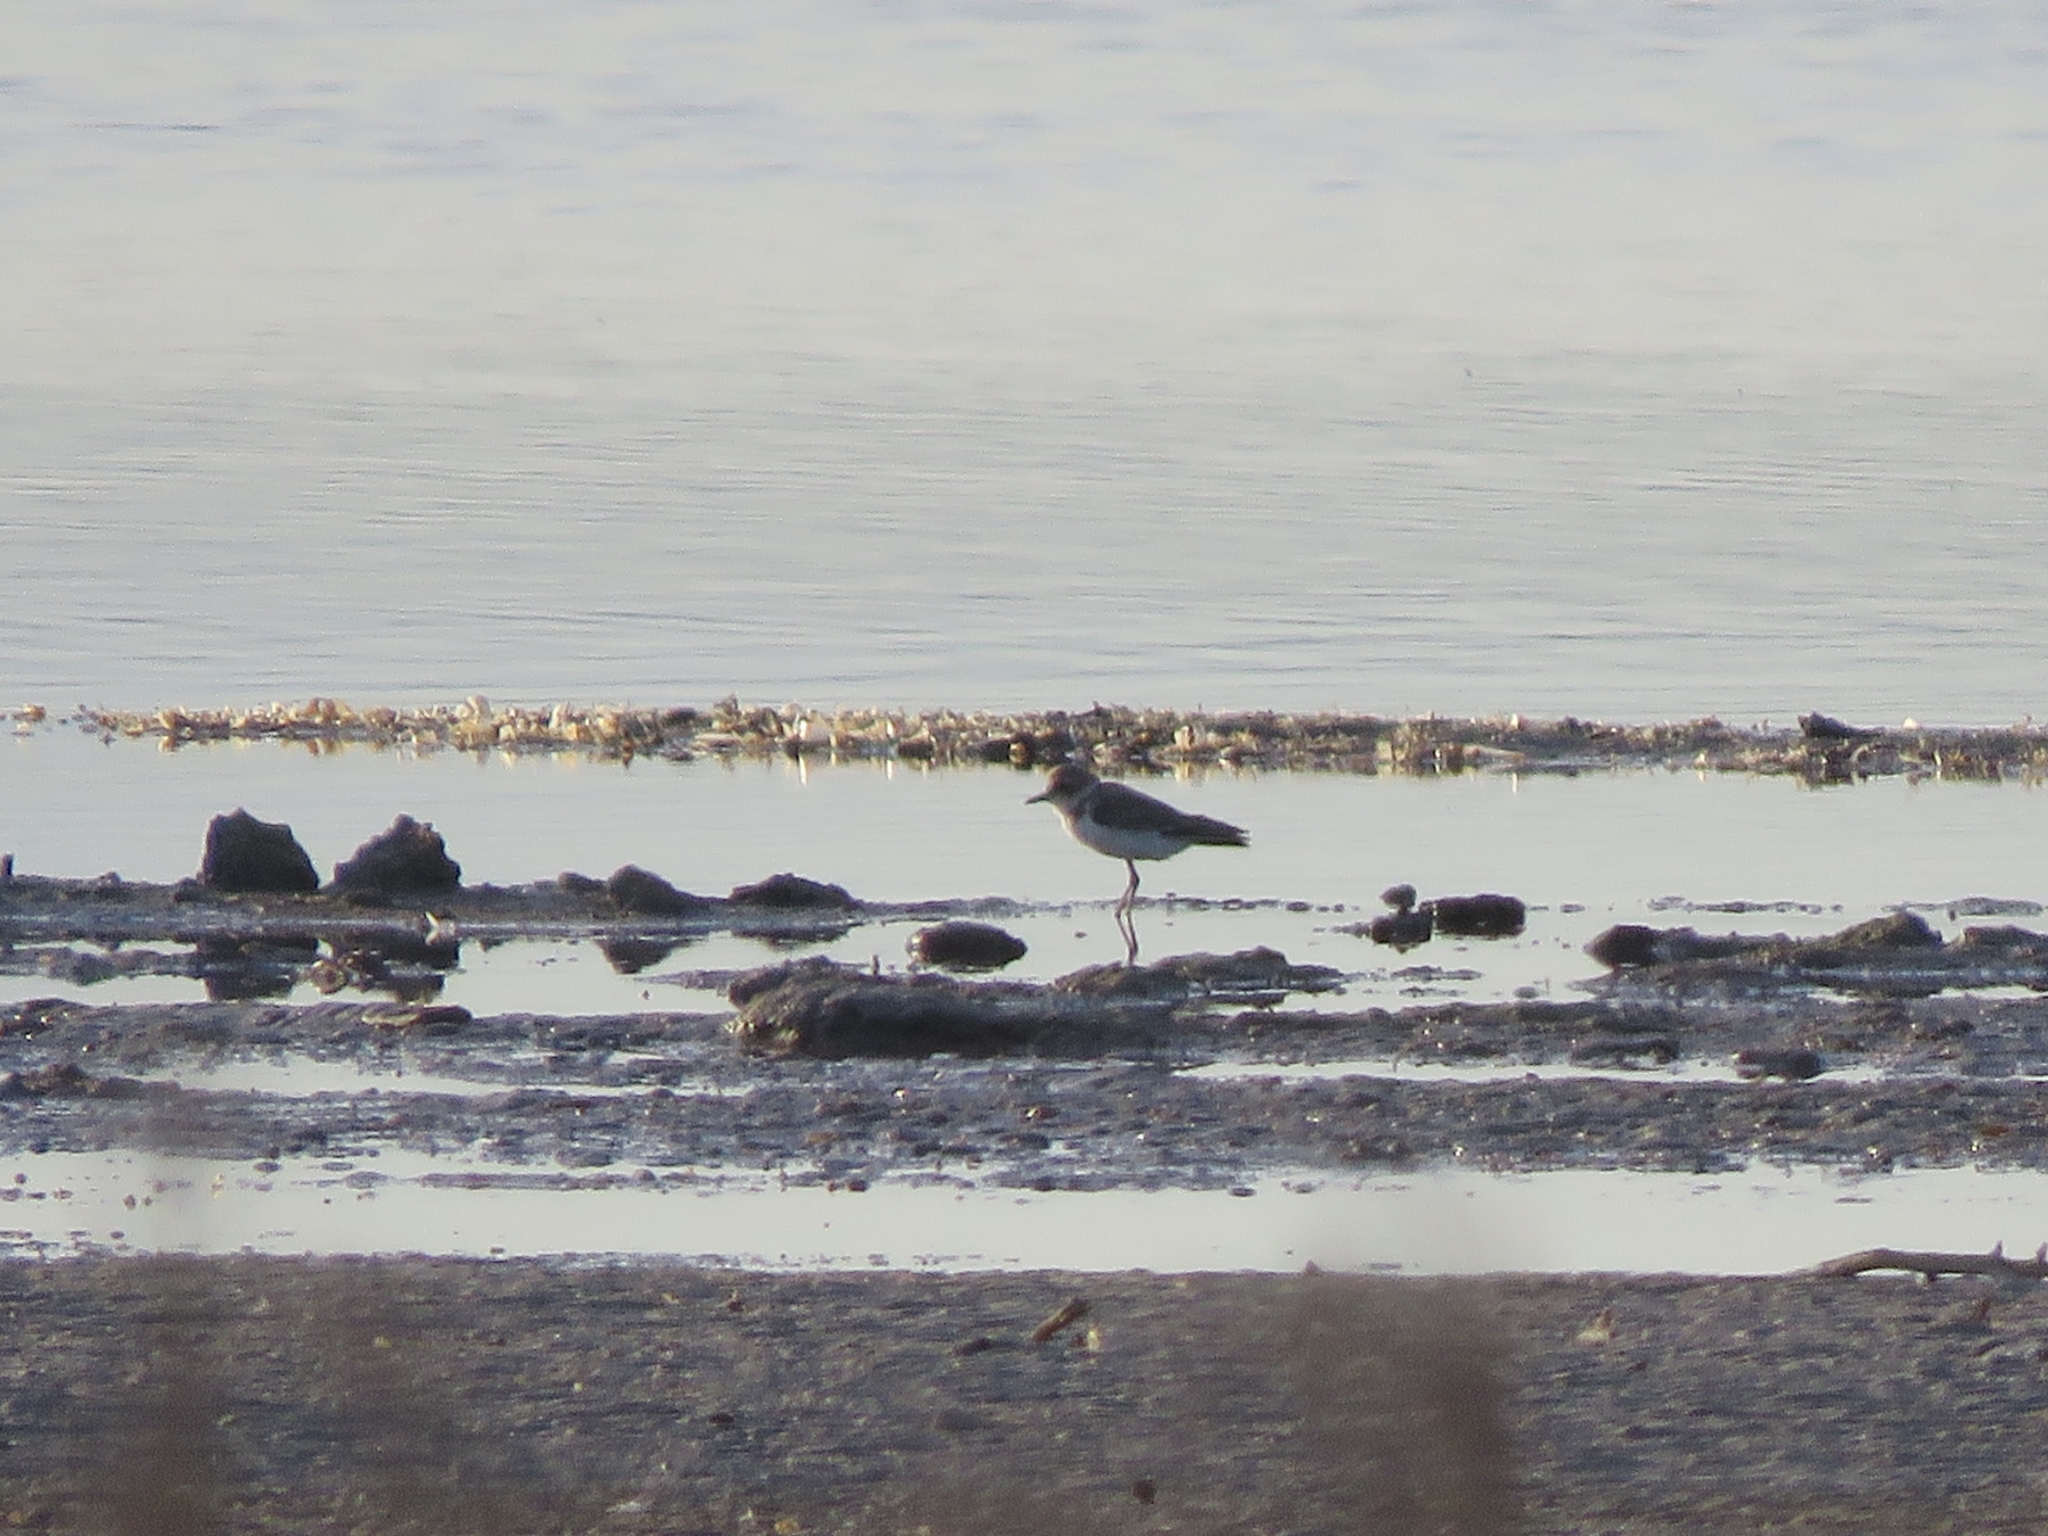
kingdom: Animalia
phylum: Chordata
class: Aves
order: Charadriiformes
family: Charadriidae
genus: Charadrius
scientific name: Charadrius alexandrinus
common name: Kentish plover
